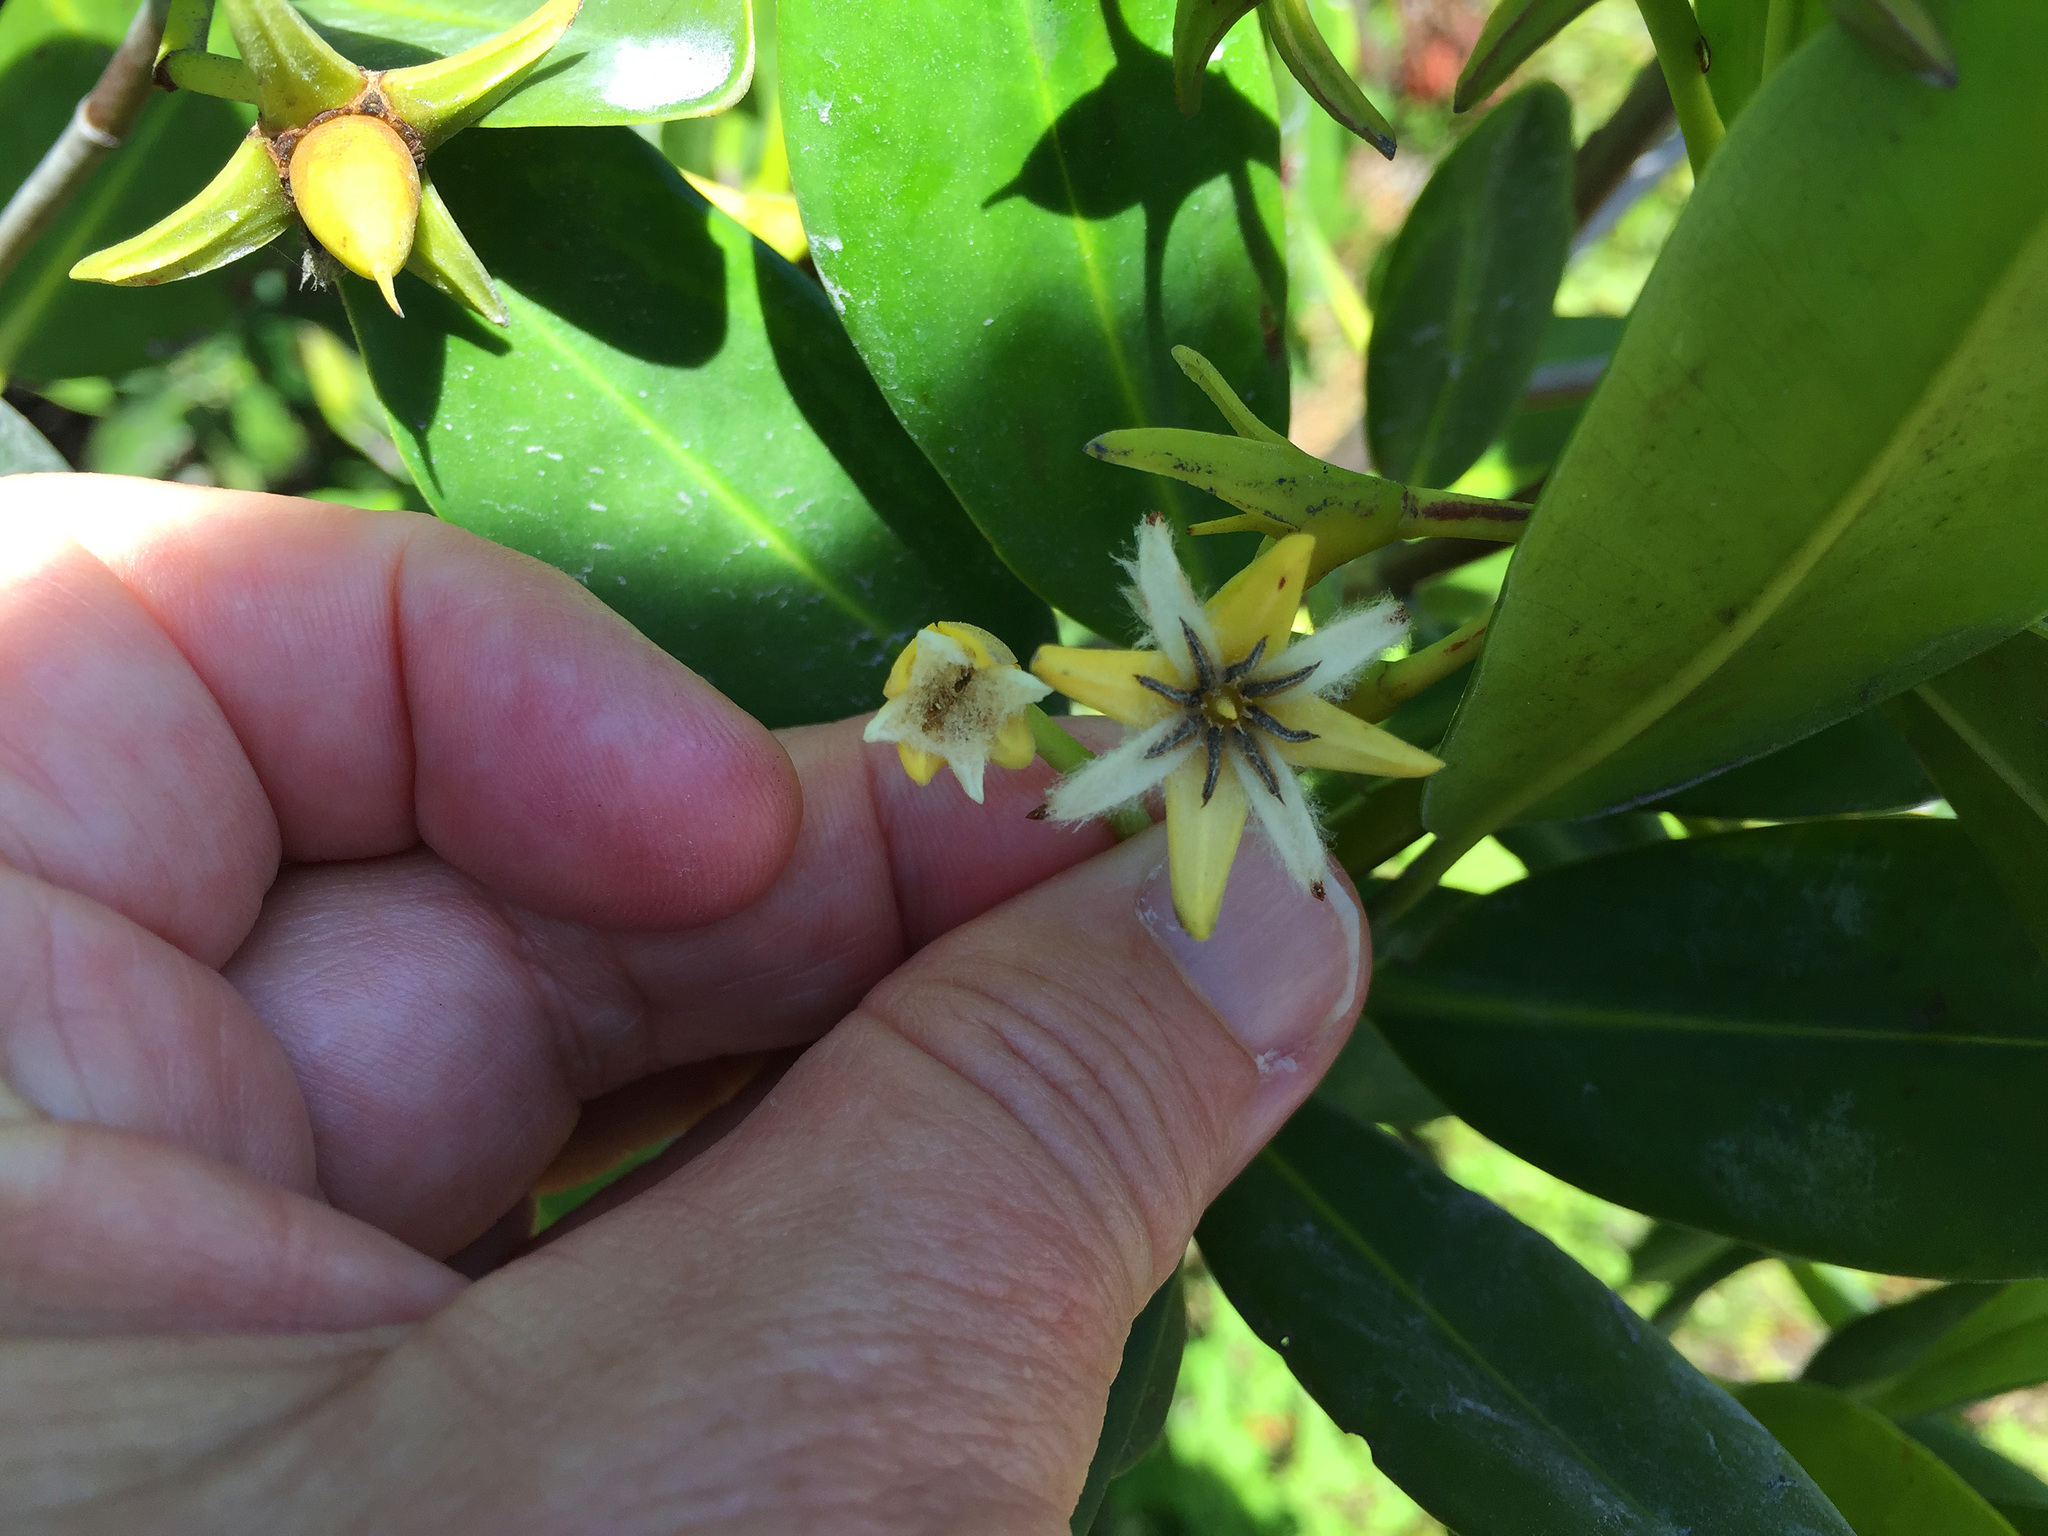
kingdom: Plantae
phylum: Tracheophyta
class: Magnoliopsida
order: Malpighiales
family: Rhizophoraceae
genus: Rhizophora
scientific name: Rhizophora mangle
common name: Red mangrove
